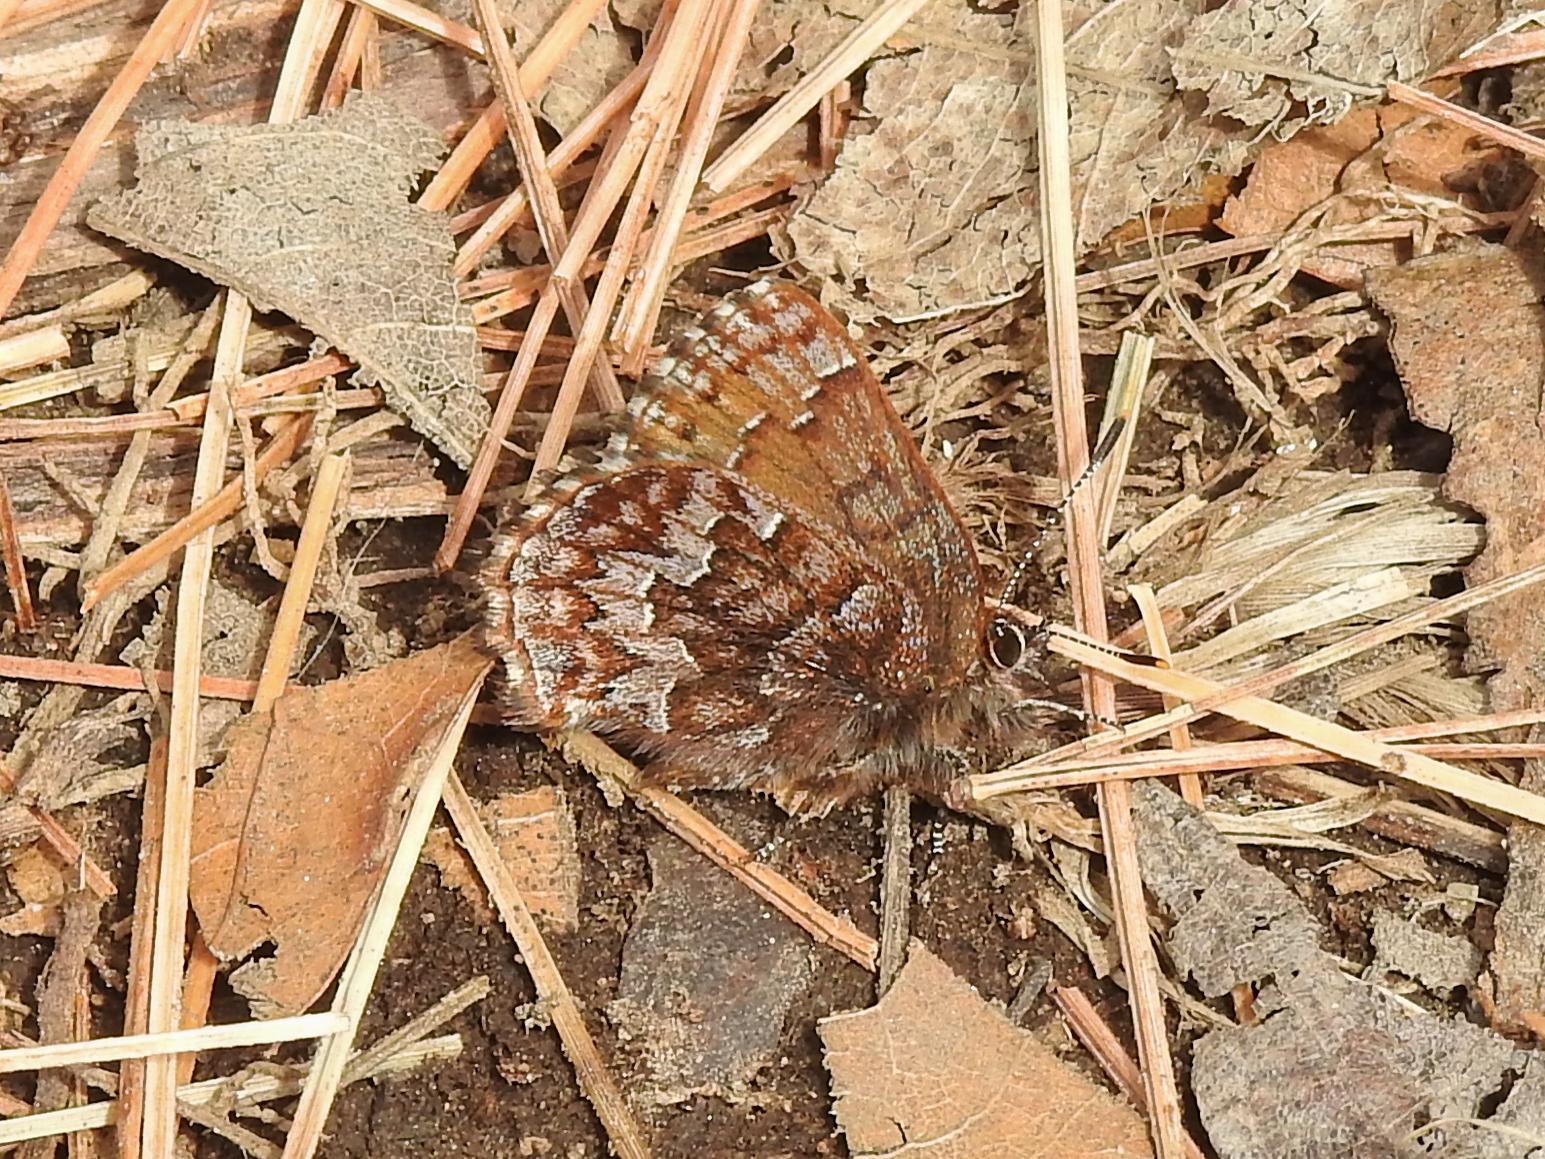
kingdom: Animalia
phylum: Arthropoda
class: Insecta
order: Lepidoptera
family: Lycaenidae
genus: Incisalia
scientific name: Incisalia niphon
